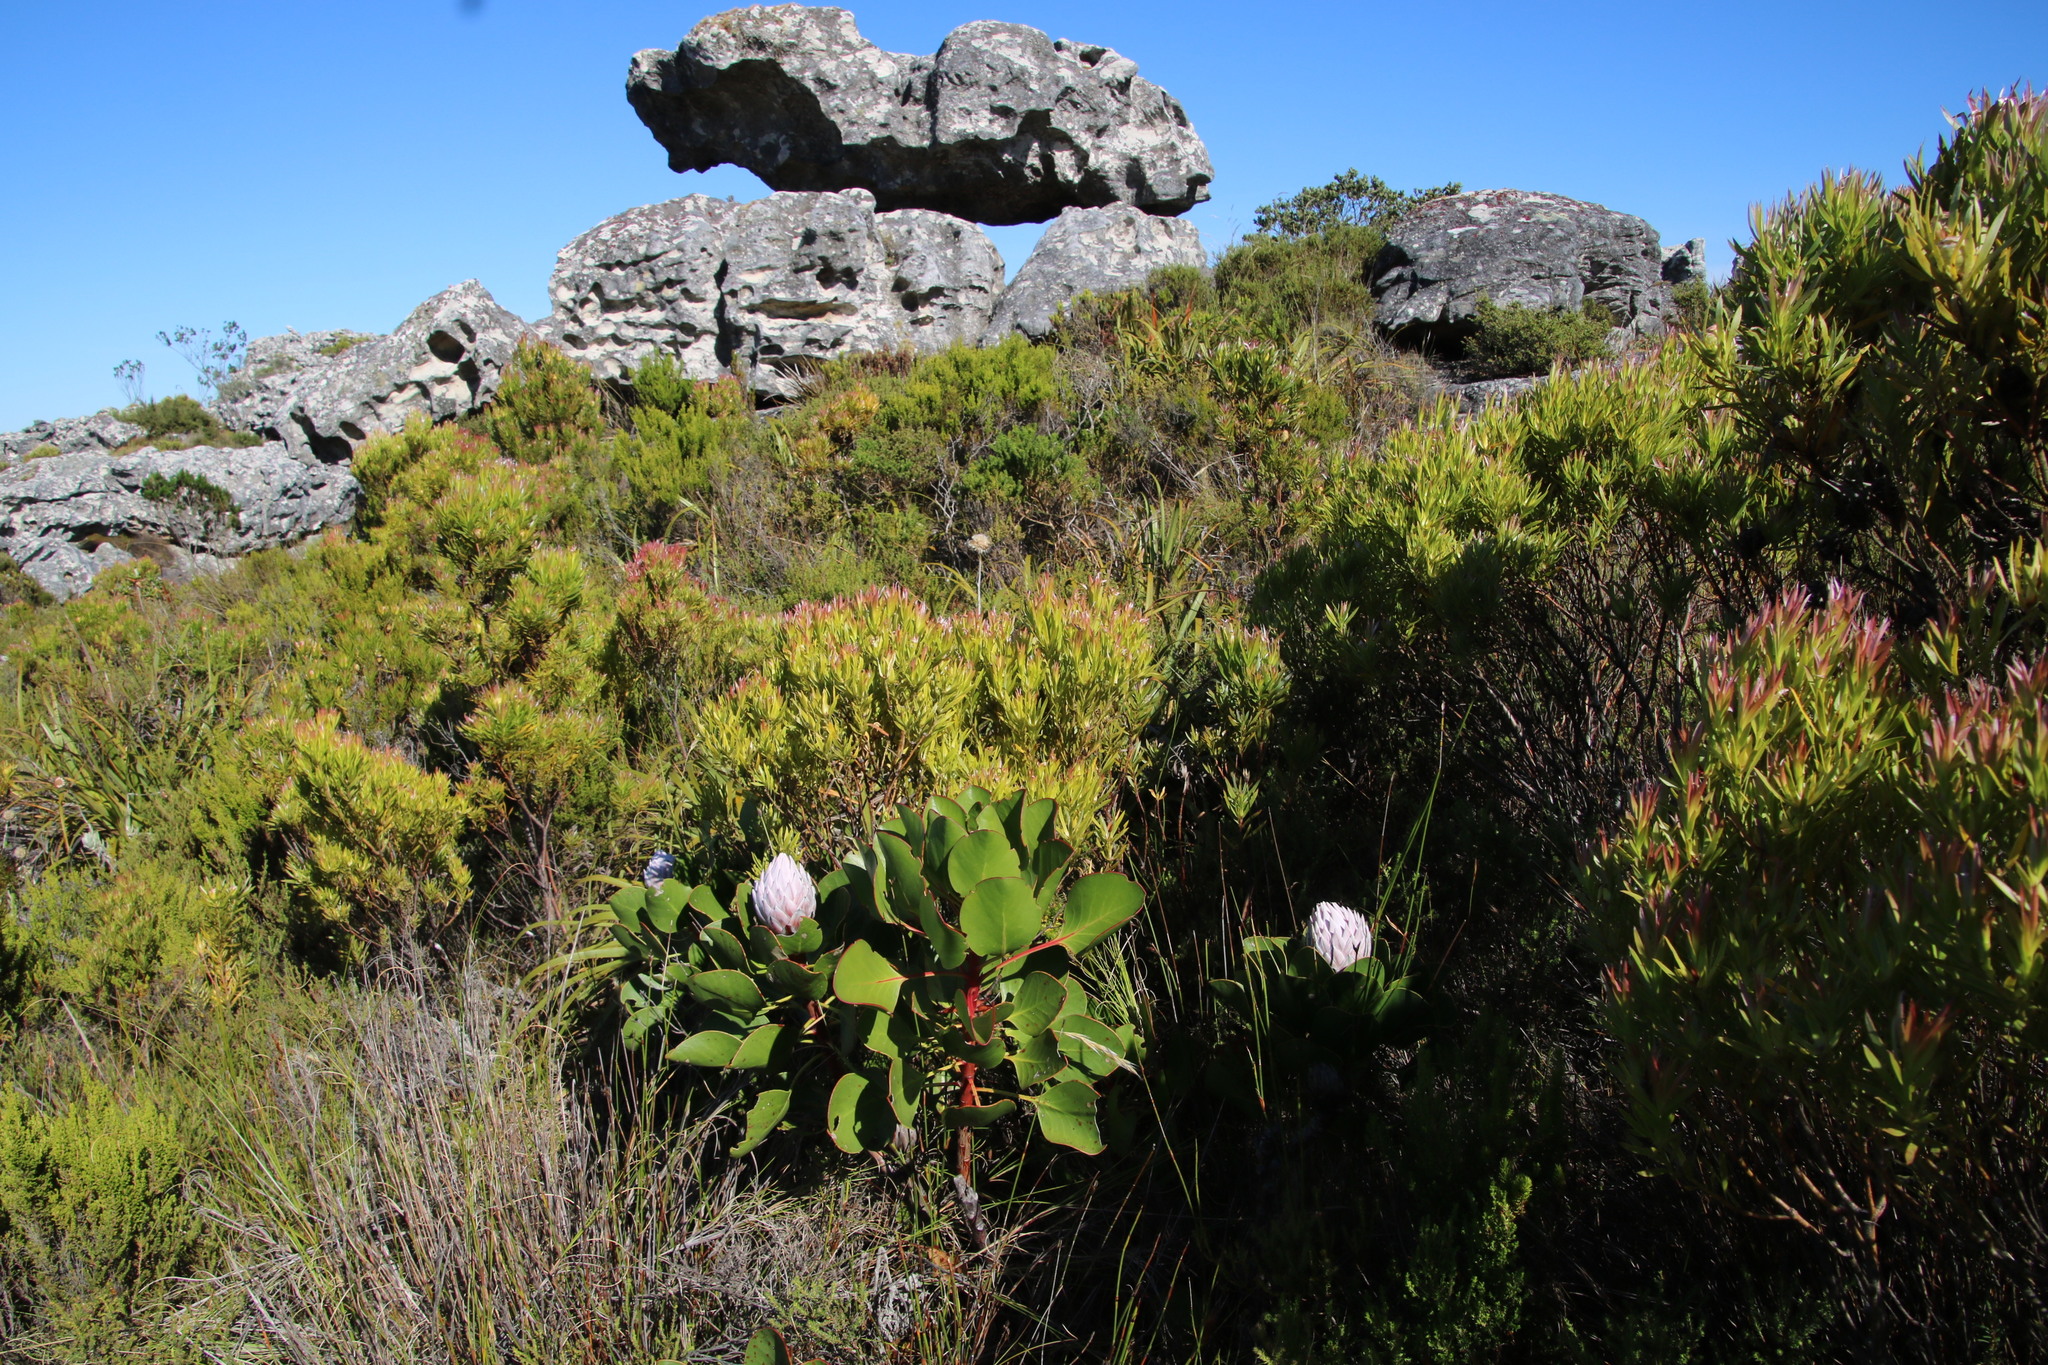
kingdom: Plantae
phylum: Tracheophyta
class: Magnoliopsida
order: Proteales
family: Proteaceae
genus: Protea
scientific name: Protea cynaroides
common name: King protea
